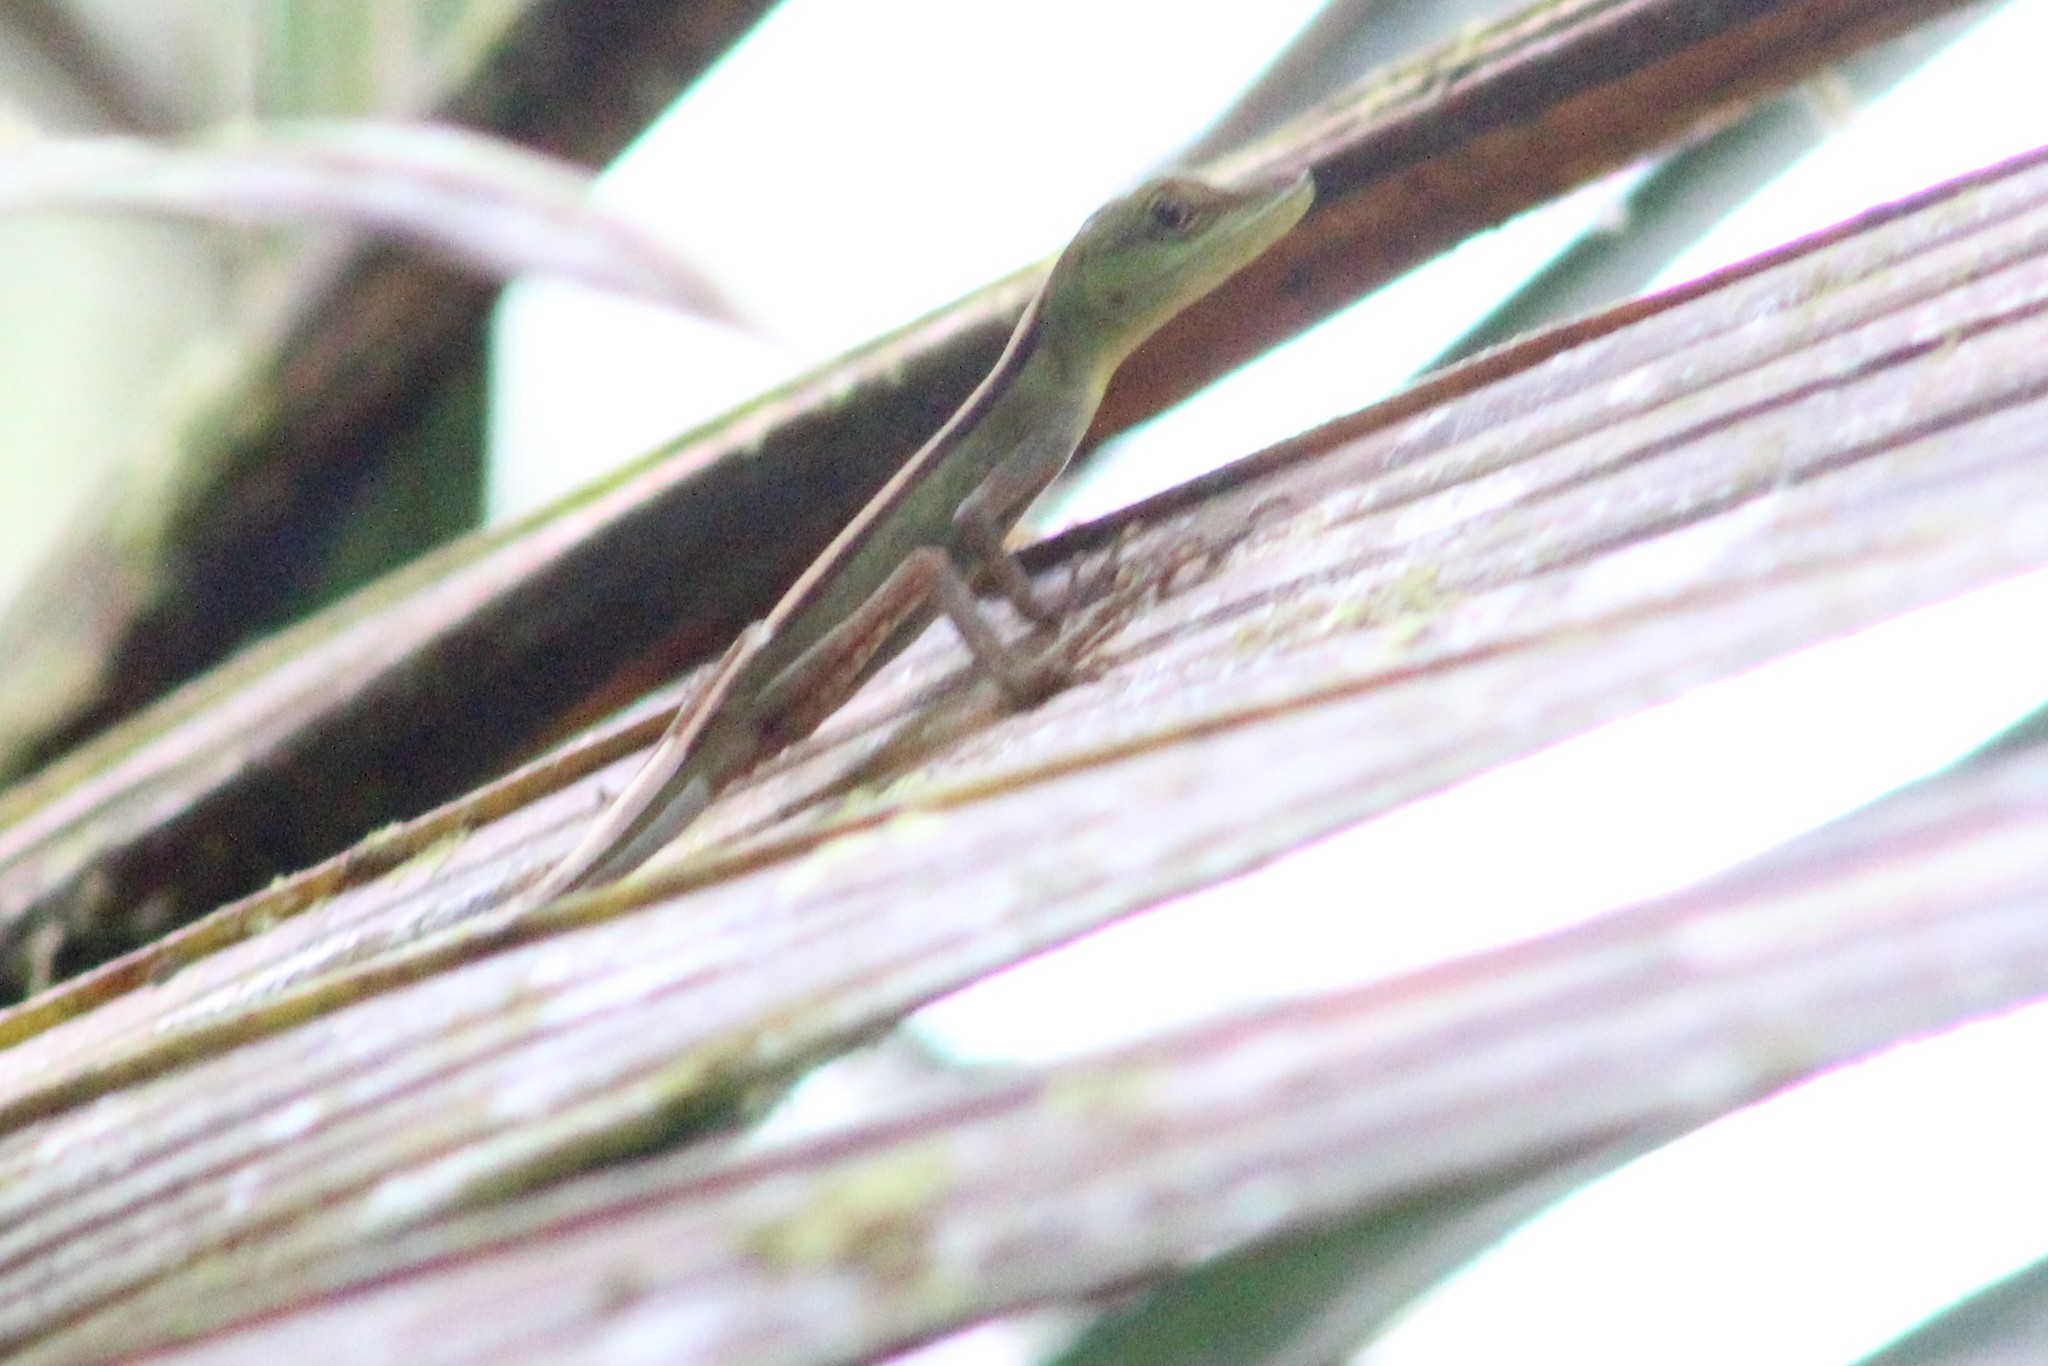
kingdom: Animalia
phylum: Chordata
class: Squamata
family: Dactyloidae
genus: Anolis
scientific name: Anolis gemmosus
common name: O'shaughnessy's anole
